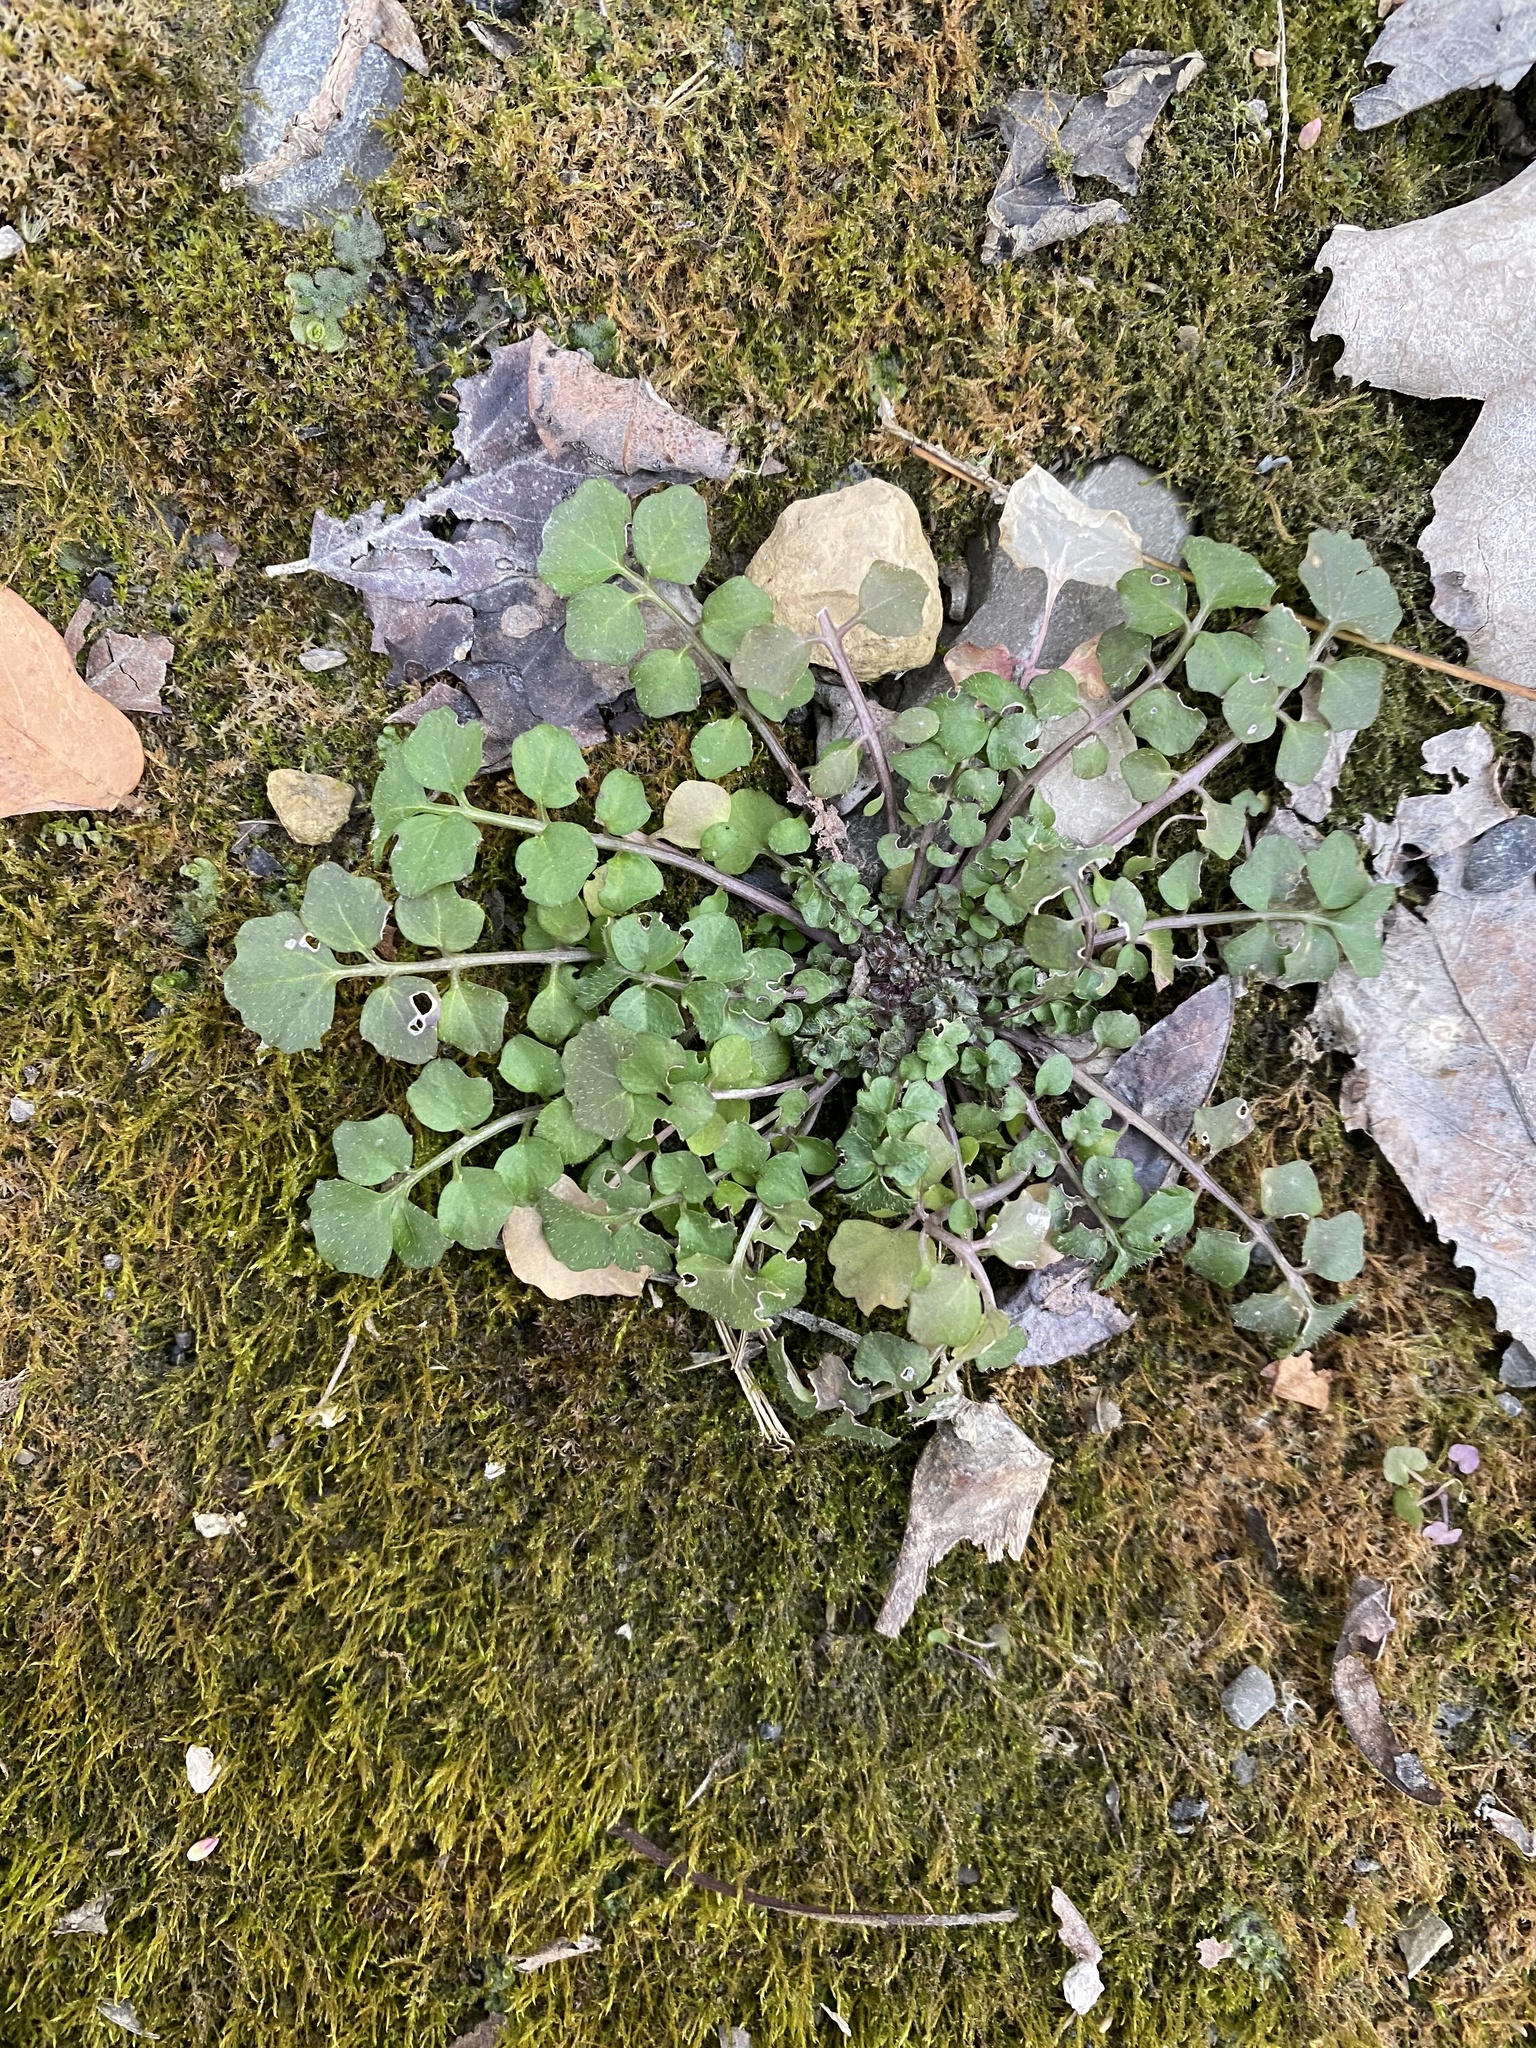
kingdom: Plantae
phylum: Tracheophyta
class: Magnoliopsida
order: Brassicales
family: Brassicaceae
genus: Cardamine
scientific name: Cardamine hirsuta
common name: Hairy bittercress
